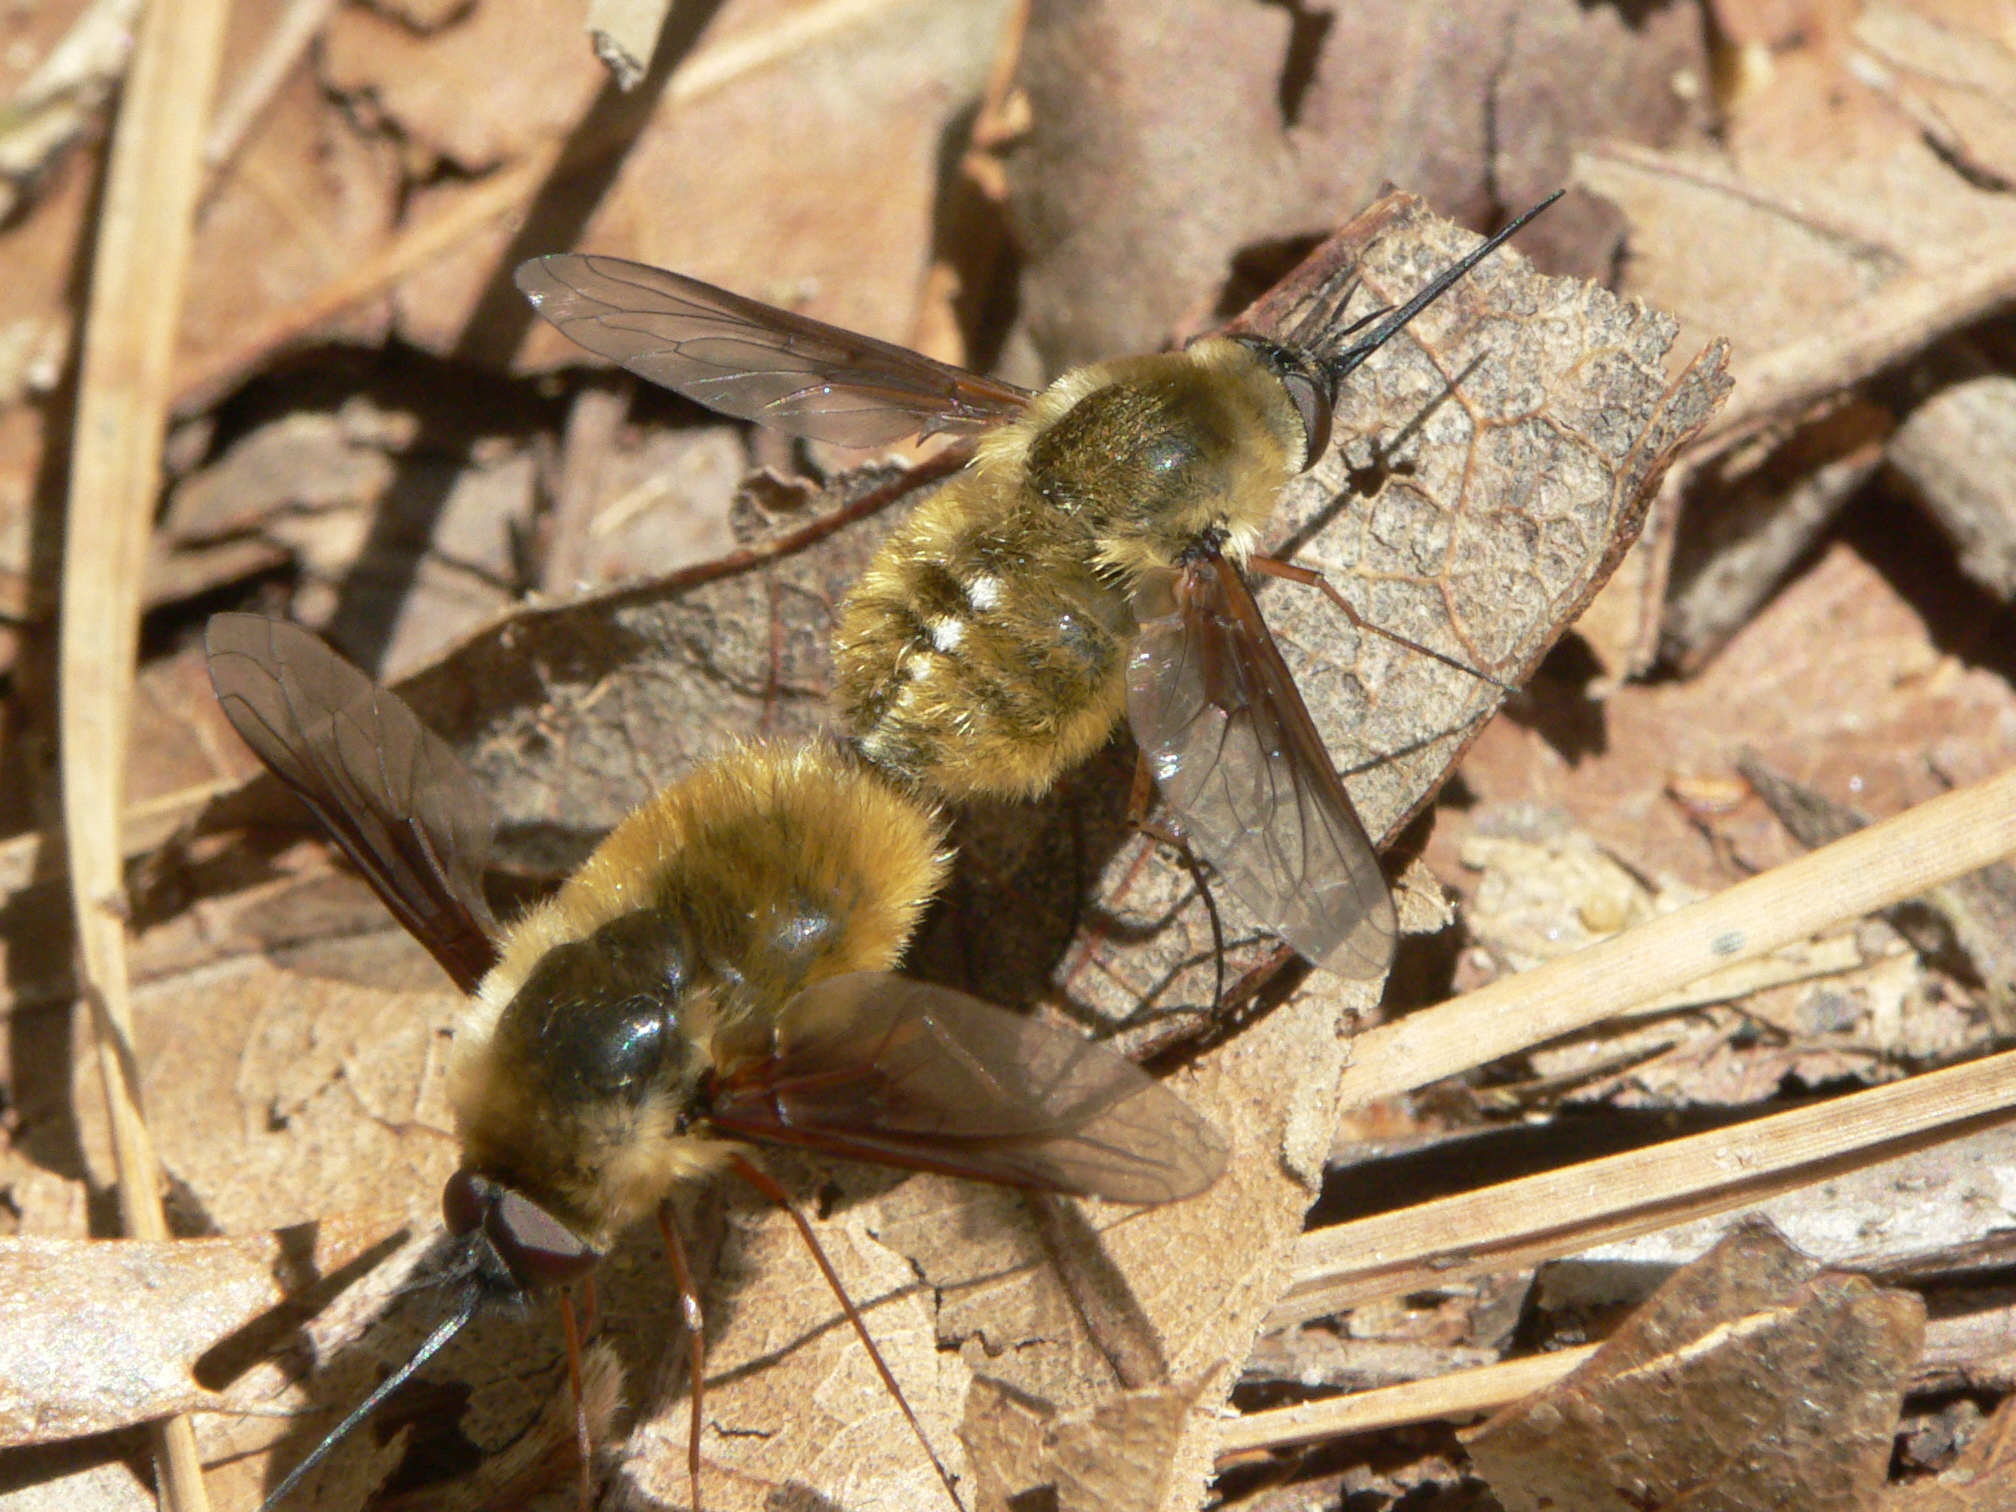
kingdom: Animalia
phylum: Arthropoda
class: Insecta
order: Diptera
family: Bombyliidae
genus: Bombylius
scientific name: Bombylius mexicanus
